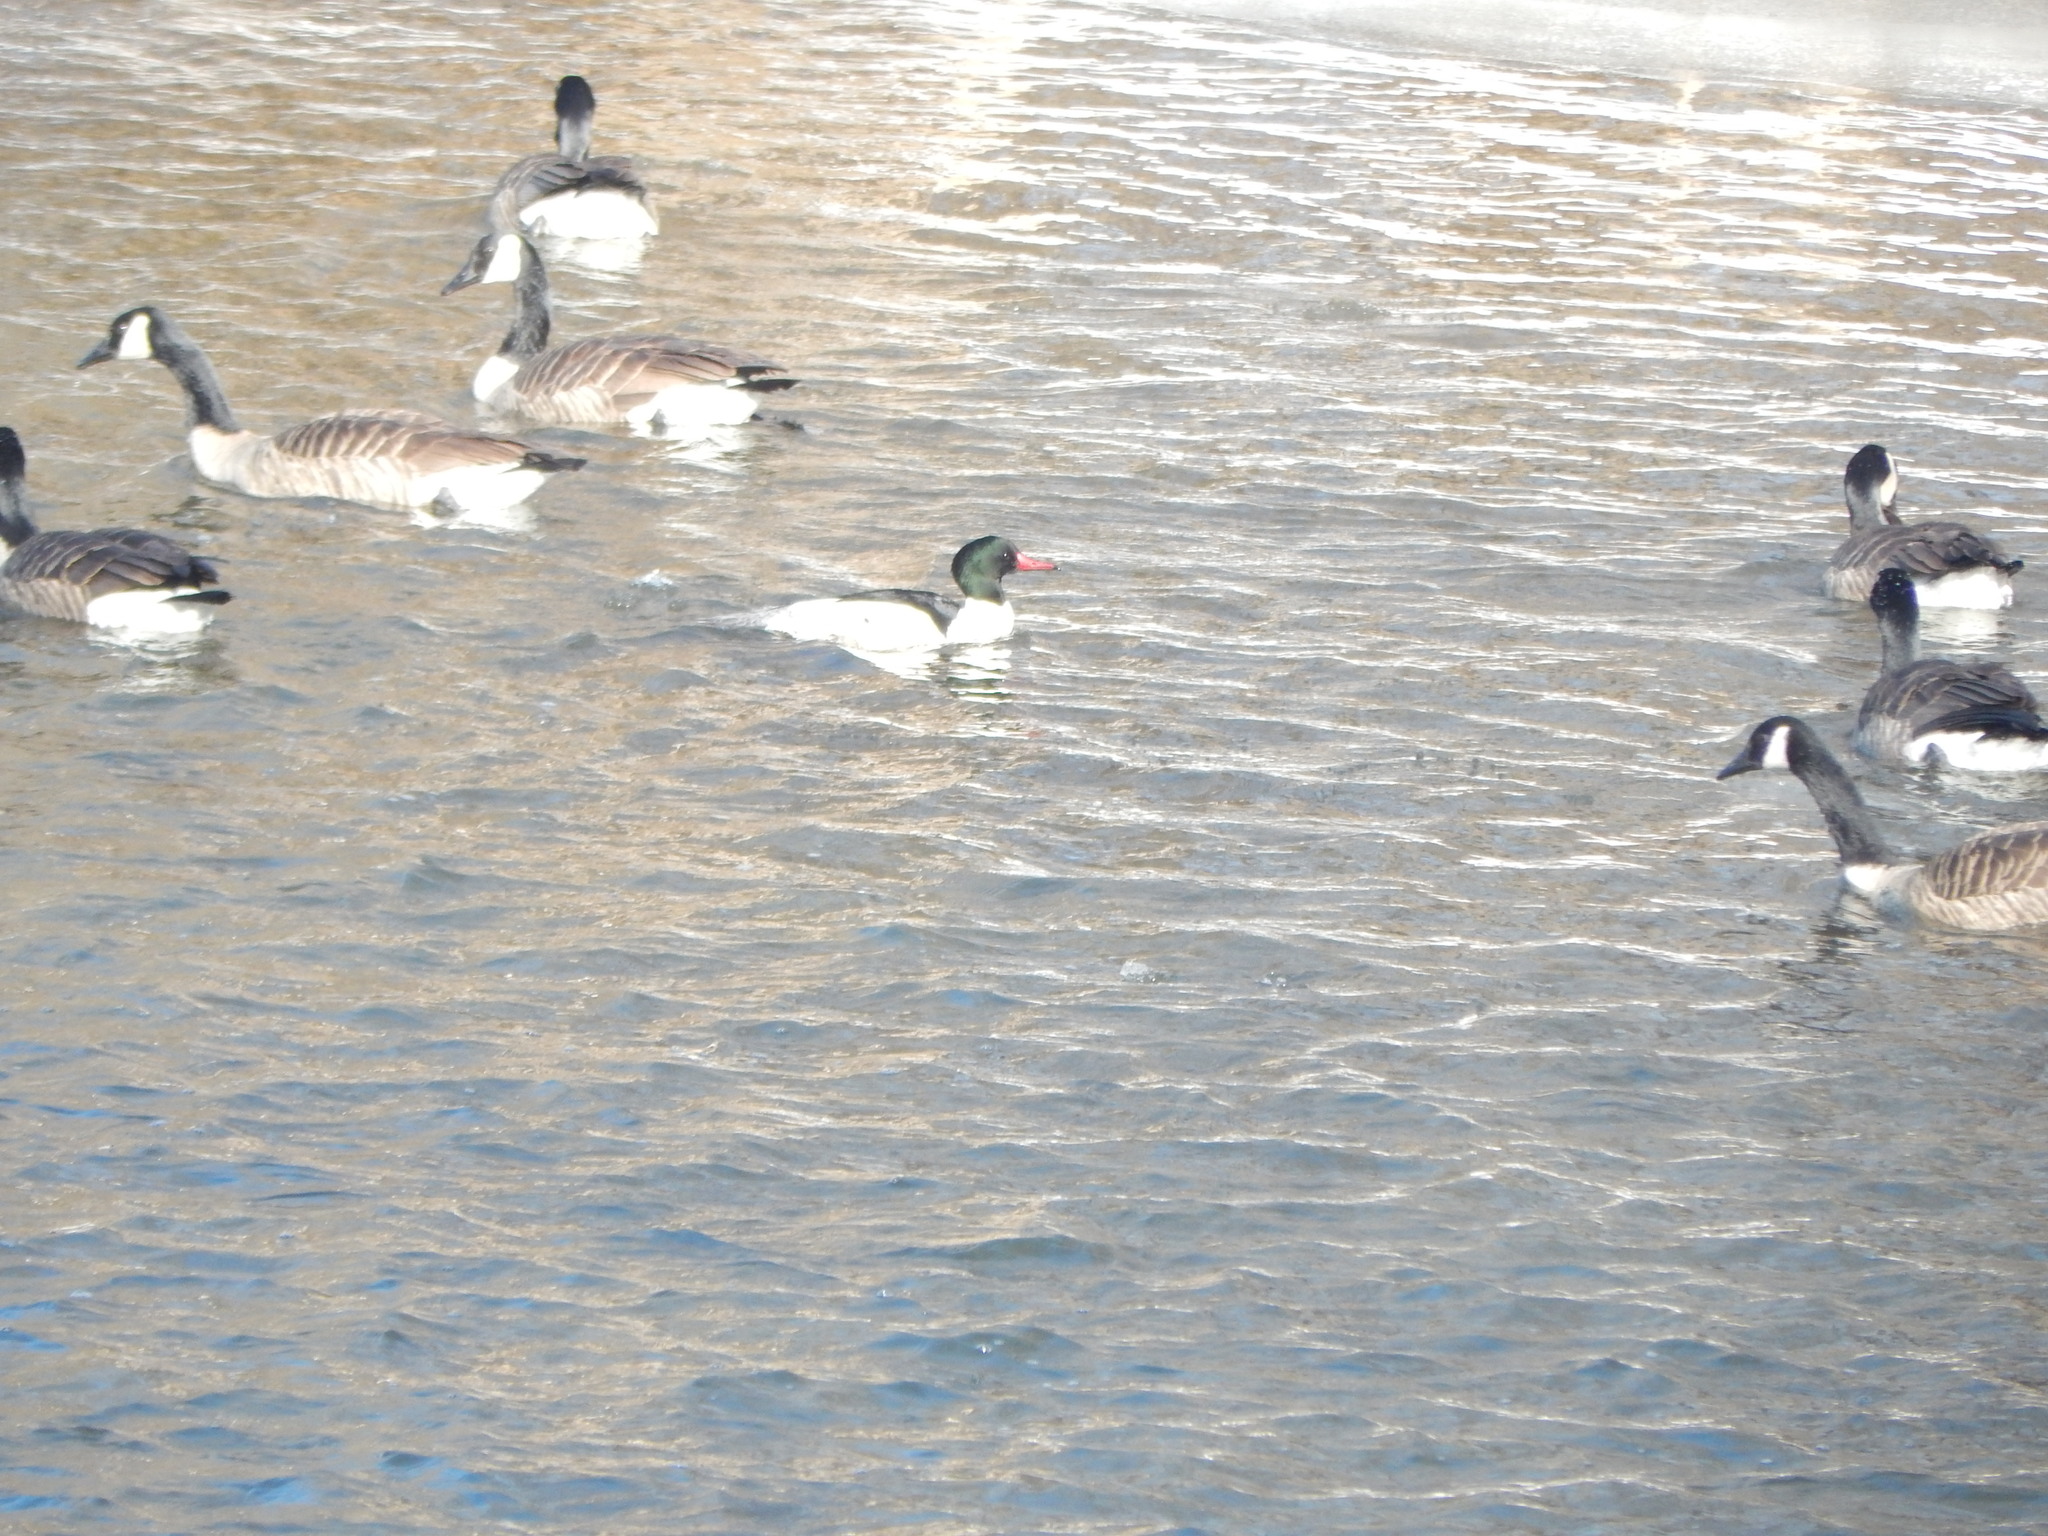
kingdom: Animalia
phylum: Chordata
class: Aves
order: Anseriformes
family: Anatidae
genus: Mergus
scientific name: Mergus merganser
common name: Common merganser
